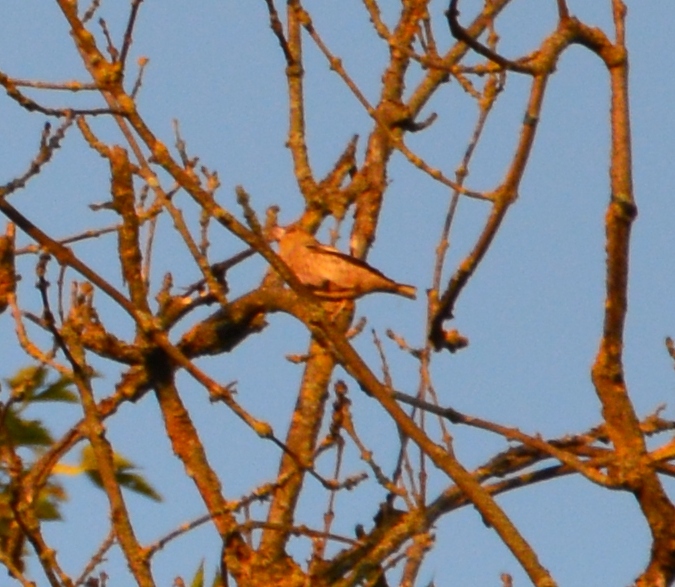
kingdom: Animalia
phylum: Chordata
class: Aves
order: Passeriformes
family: Fringillidae
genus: Coccothraustes
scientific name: Coccothraustes coccothraustes
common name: Hawfinch
